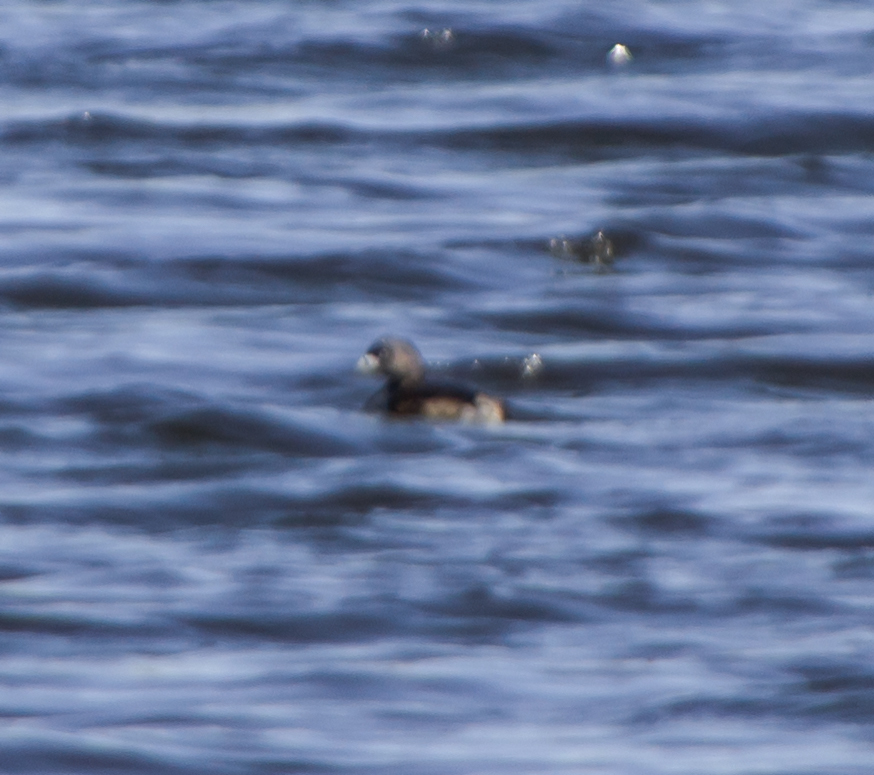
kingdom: Animalia
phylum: Chordata
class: Aves
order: Podicipediformes
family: Podicipedidae
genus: Podilymbus
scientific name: Podilymbus podiceps
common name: Pied-billed grebe
